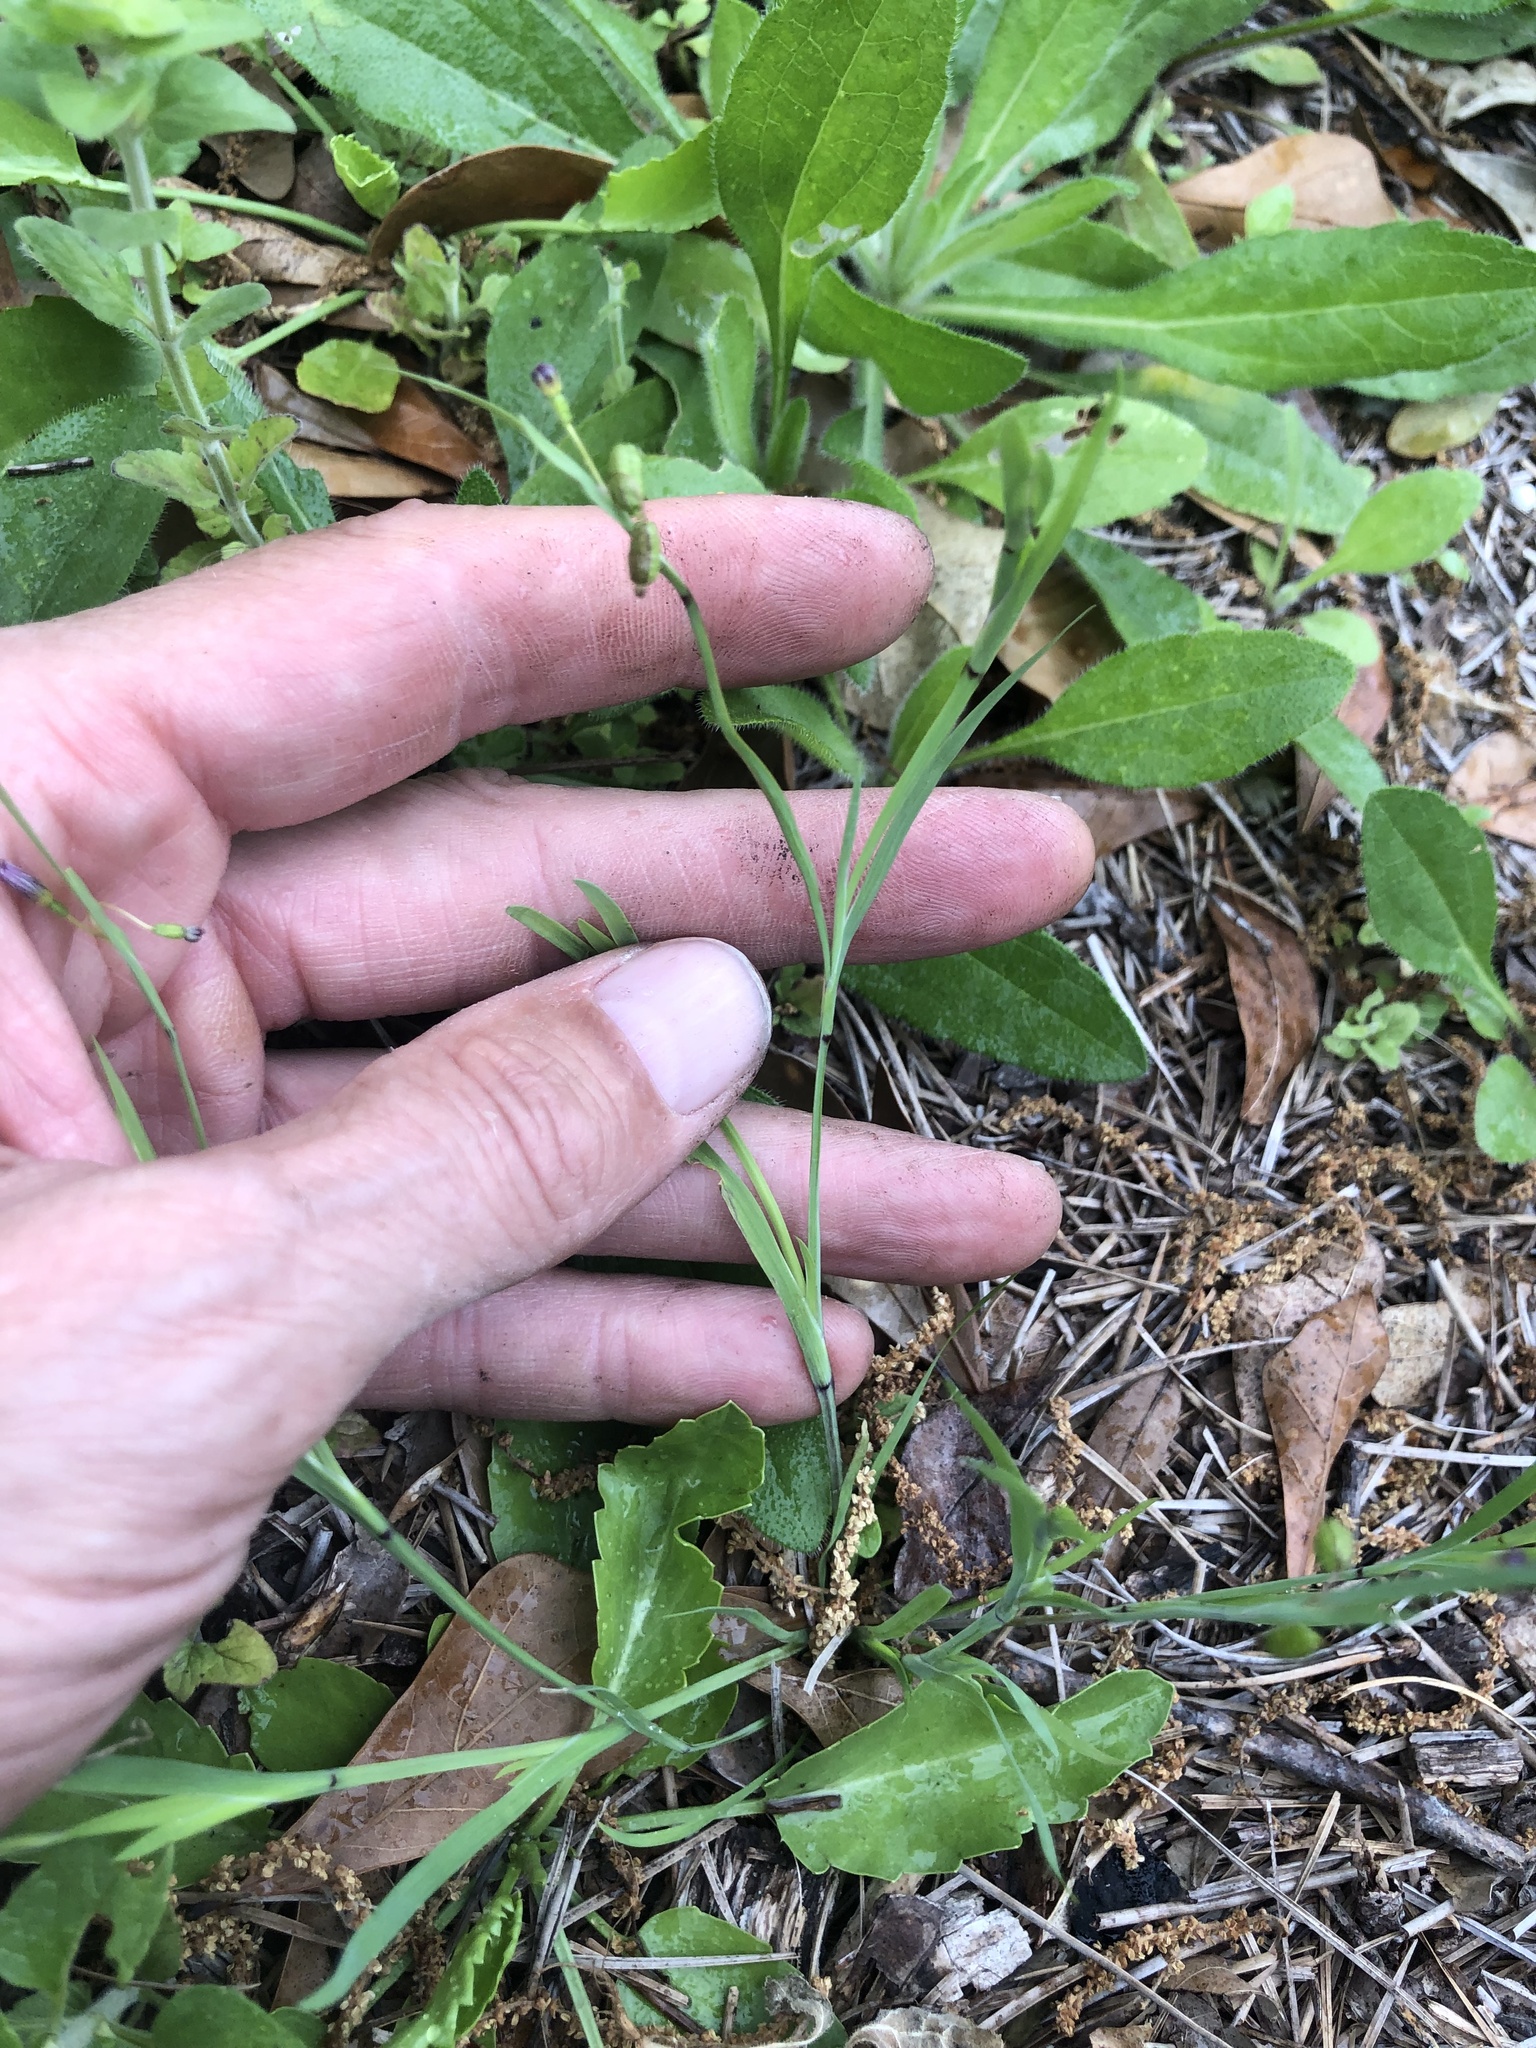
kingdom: Plantae
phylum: Tracheophyta
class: Liliopsida
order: Asparagales
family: Iridaceae
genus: Sisyrinchium
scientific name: Sisyrinchium minus
